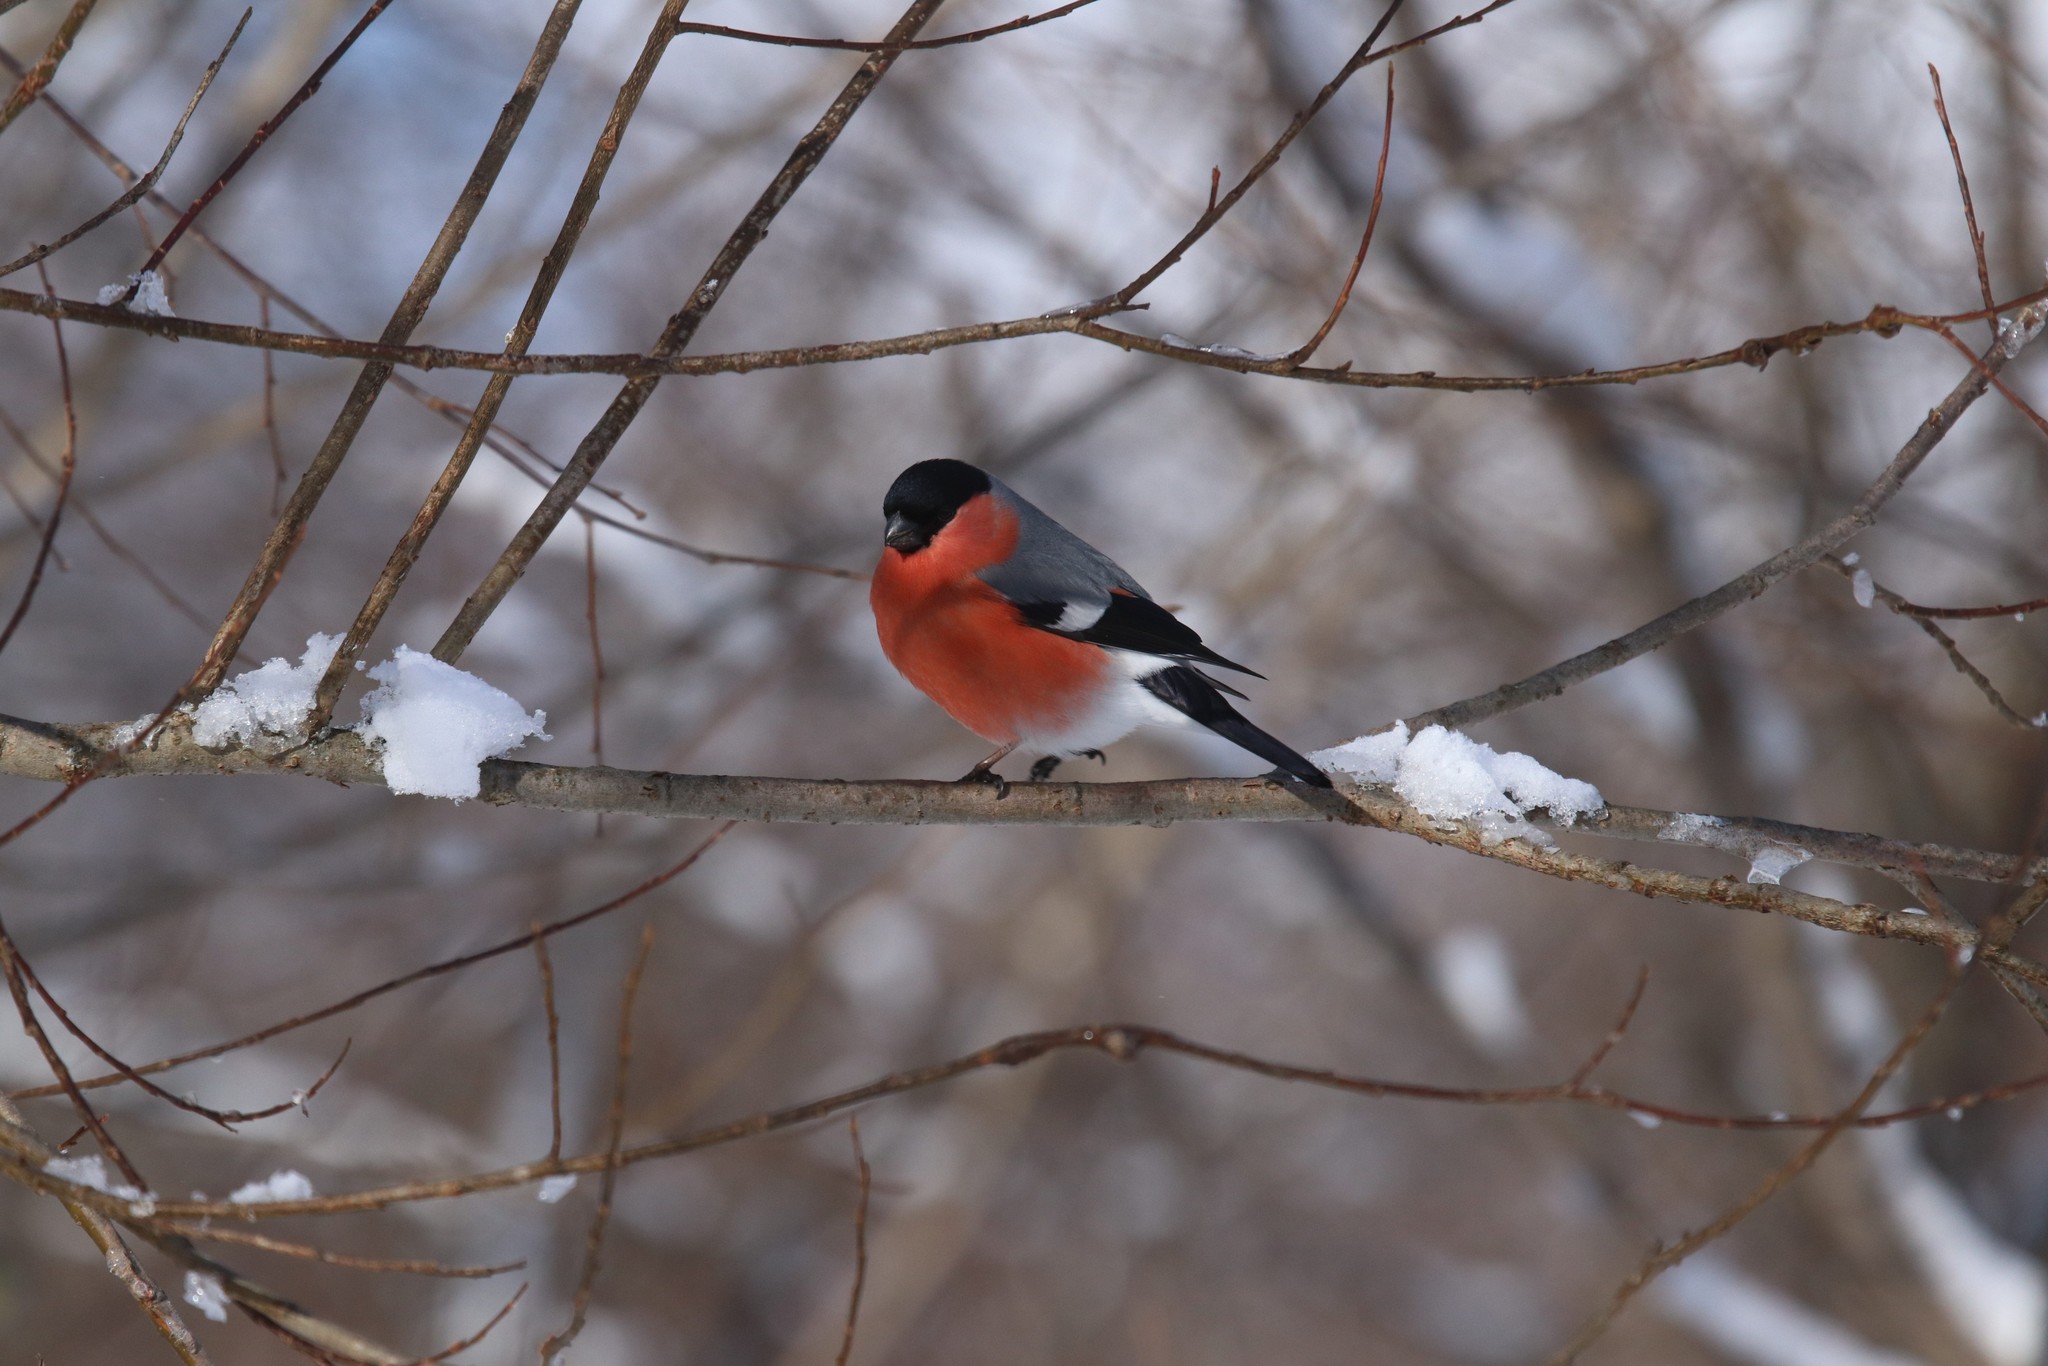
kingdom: Animalia
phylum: Chordata
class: Aves
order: Passeriformes
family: Fringillidae
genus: Pyrrhula
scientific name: Pyrrhula pyrrhula
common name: Eurasian bullfinch
